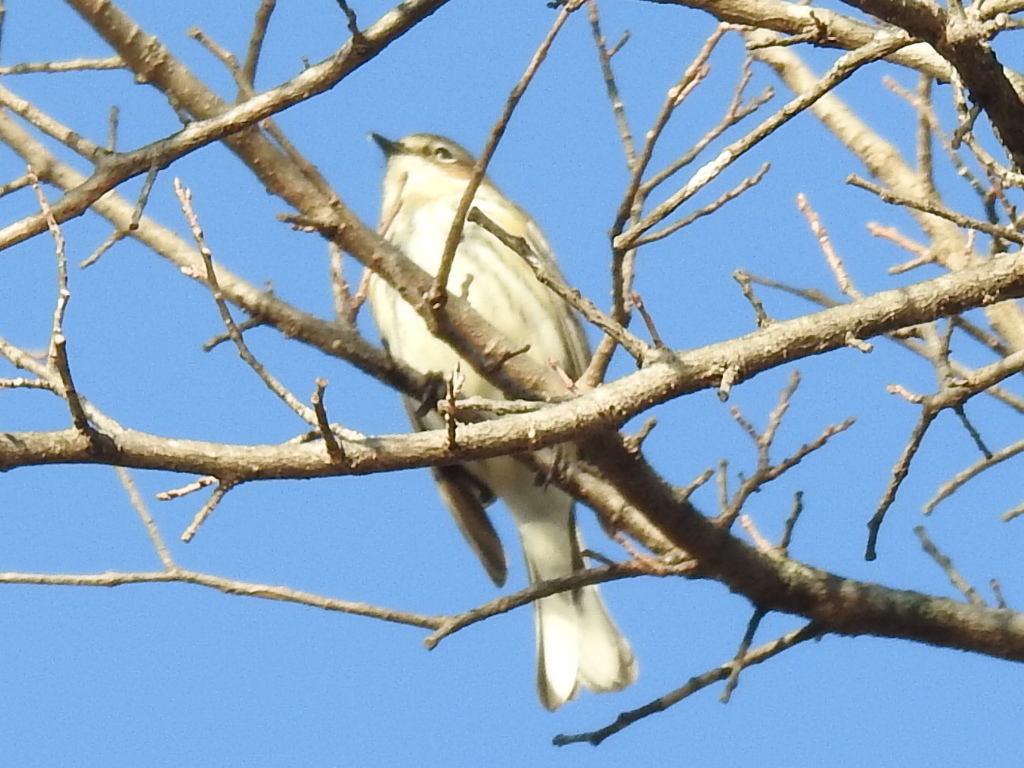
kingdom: Animalia
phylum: Chordata
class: Aves
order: Passeriformes
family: Parulidae
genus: Setophaga
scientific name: Setophaga coronata
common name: Myrtle warbler
